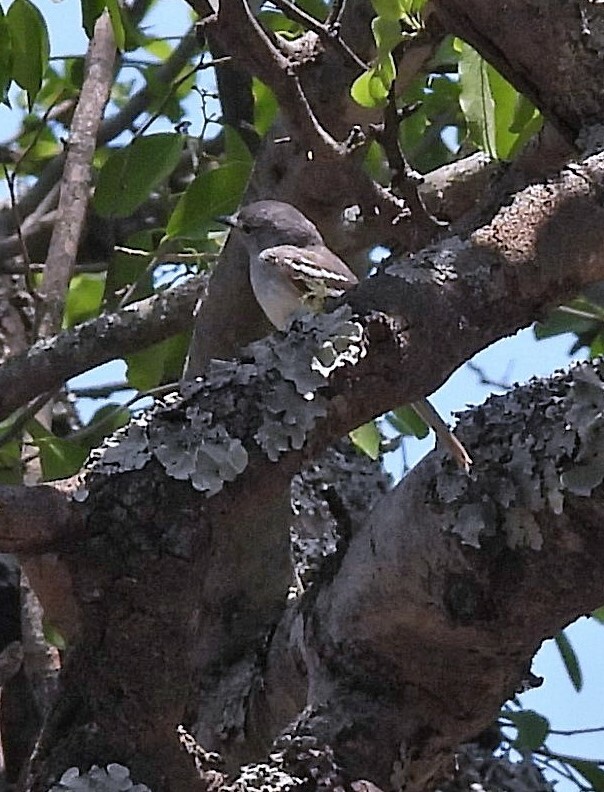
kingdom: Animalia
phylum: Chordata
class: Aves
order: Passeriformes
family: Tyrannidae
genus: Inezia
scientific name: Inezia inornata
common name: Plain inezia
